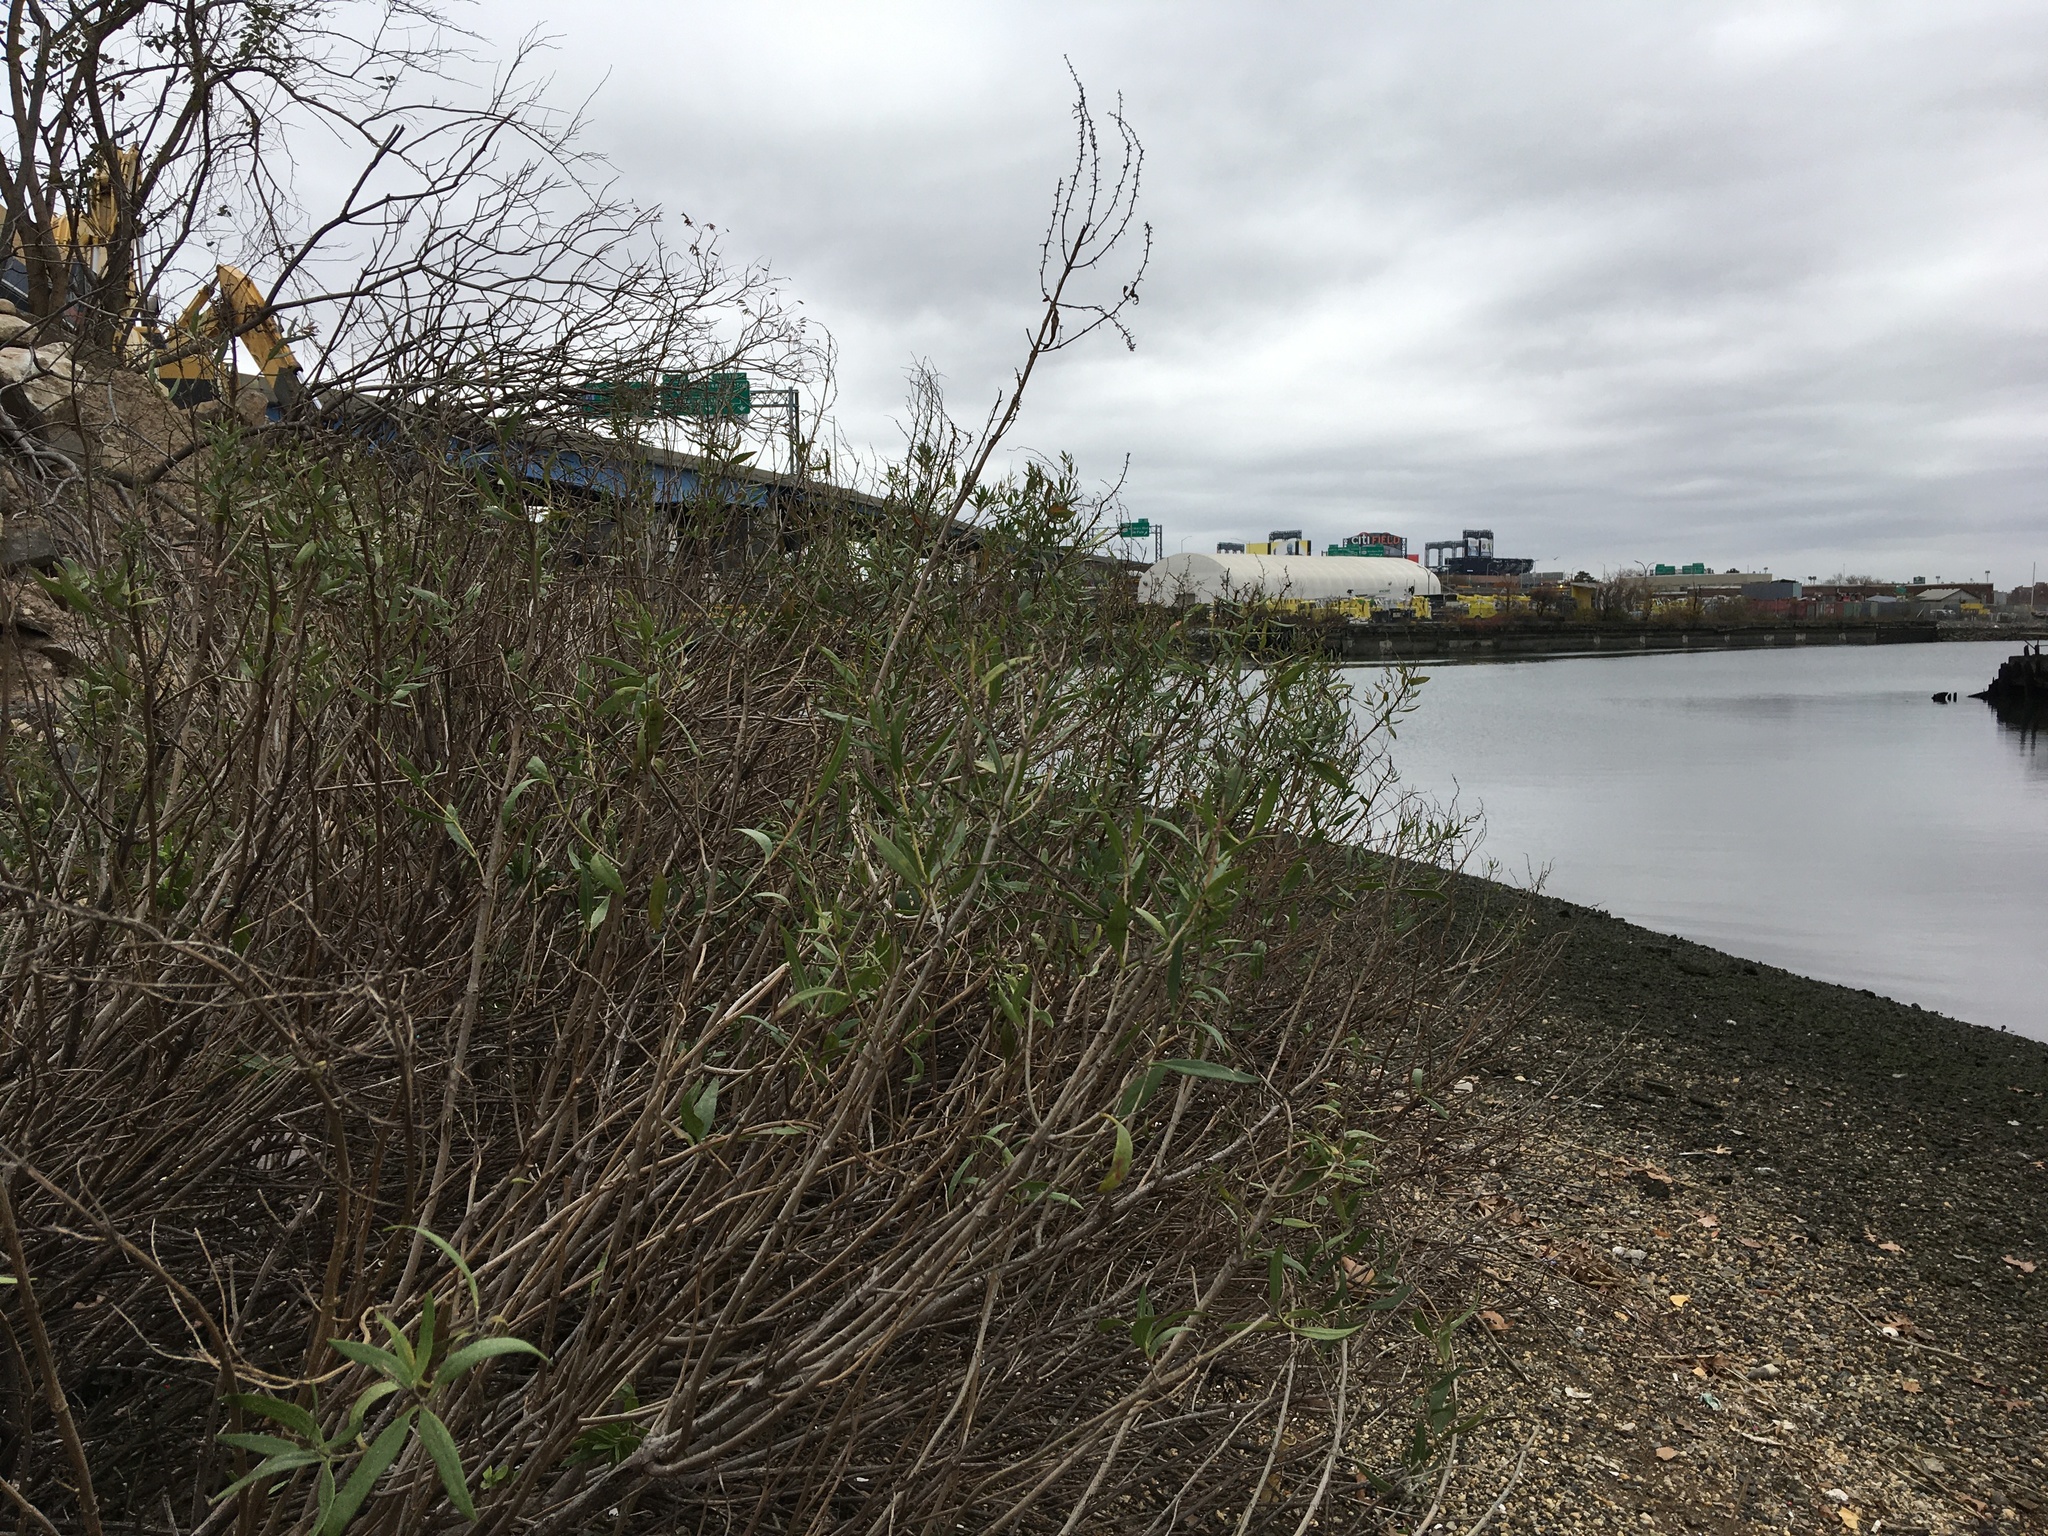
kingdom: Plantae
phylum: Tracheophyta
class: Magnoliopsida
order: Asterales
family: Asteraceae
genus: Iva
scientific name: Iva frutescens
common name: Big-leaved marsh-elder
